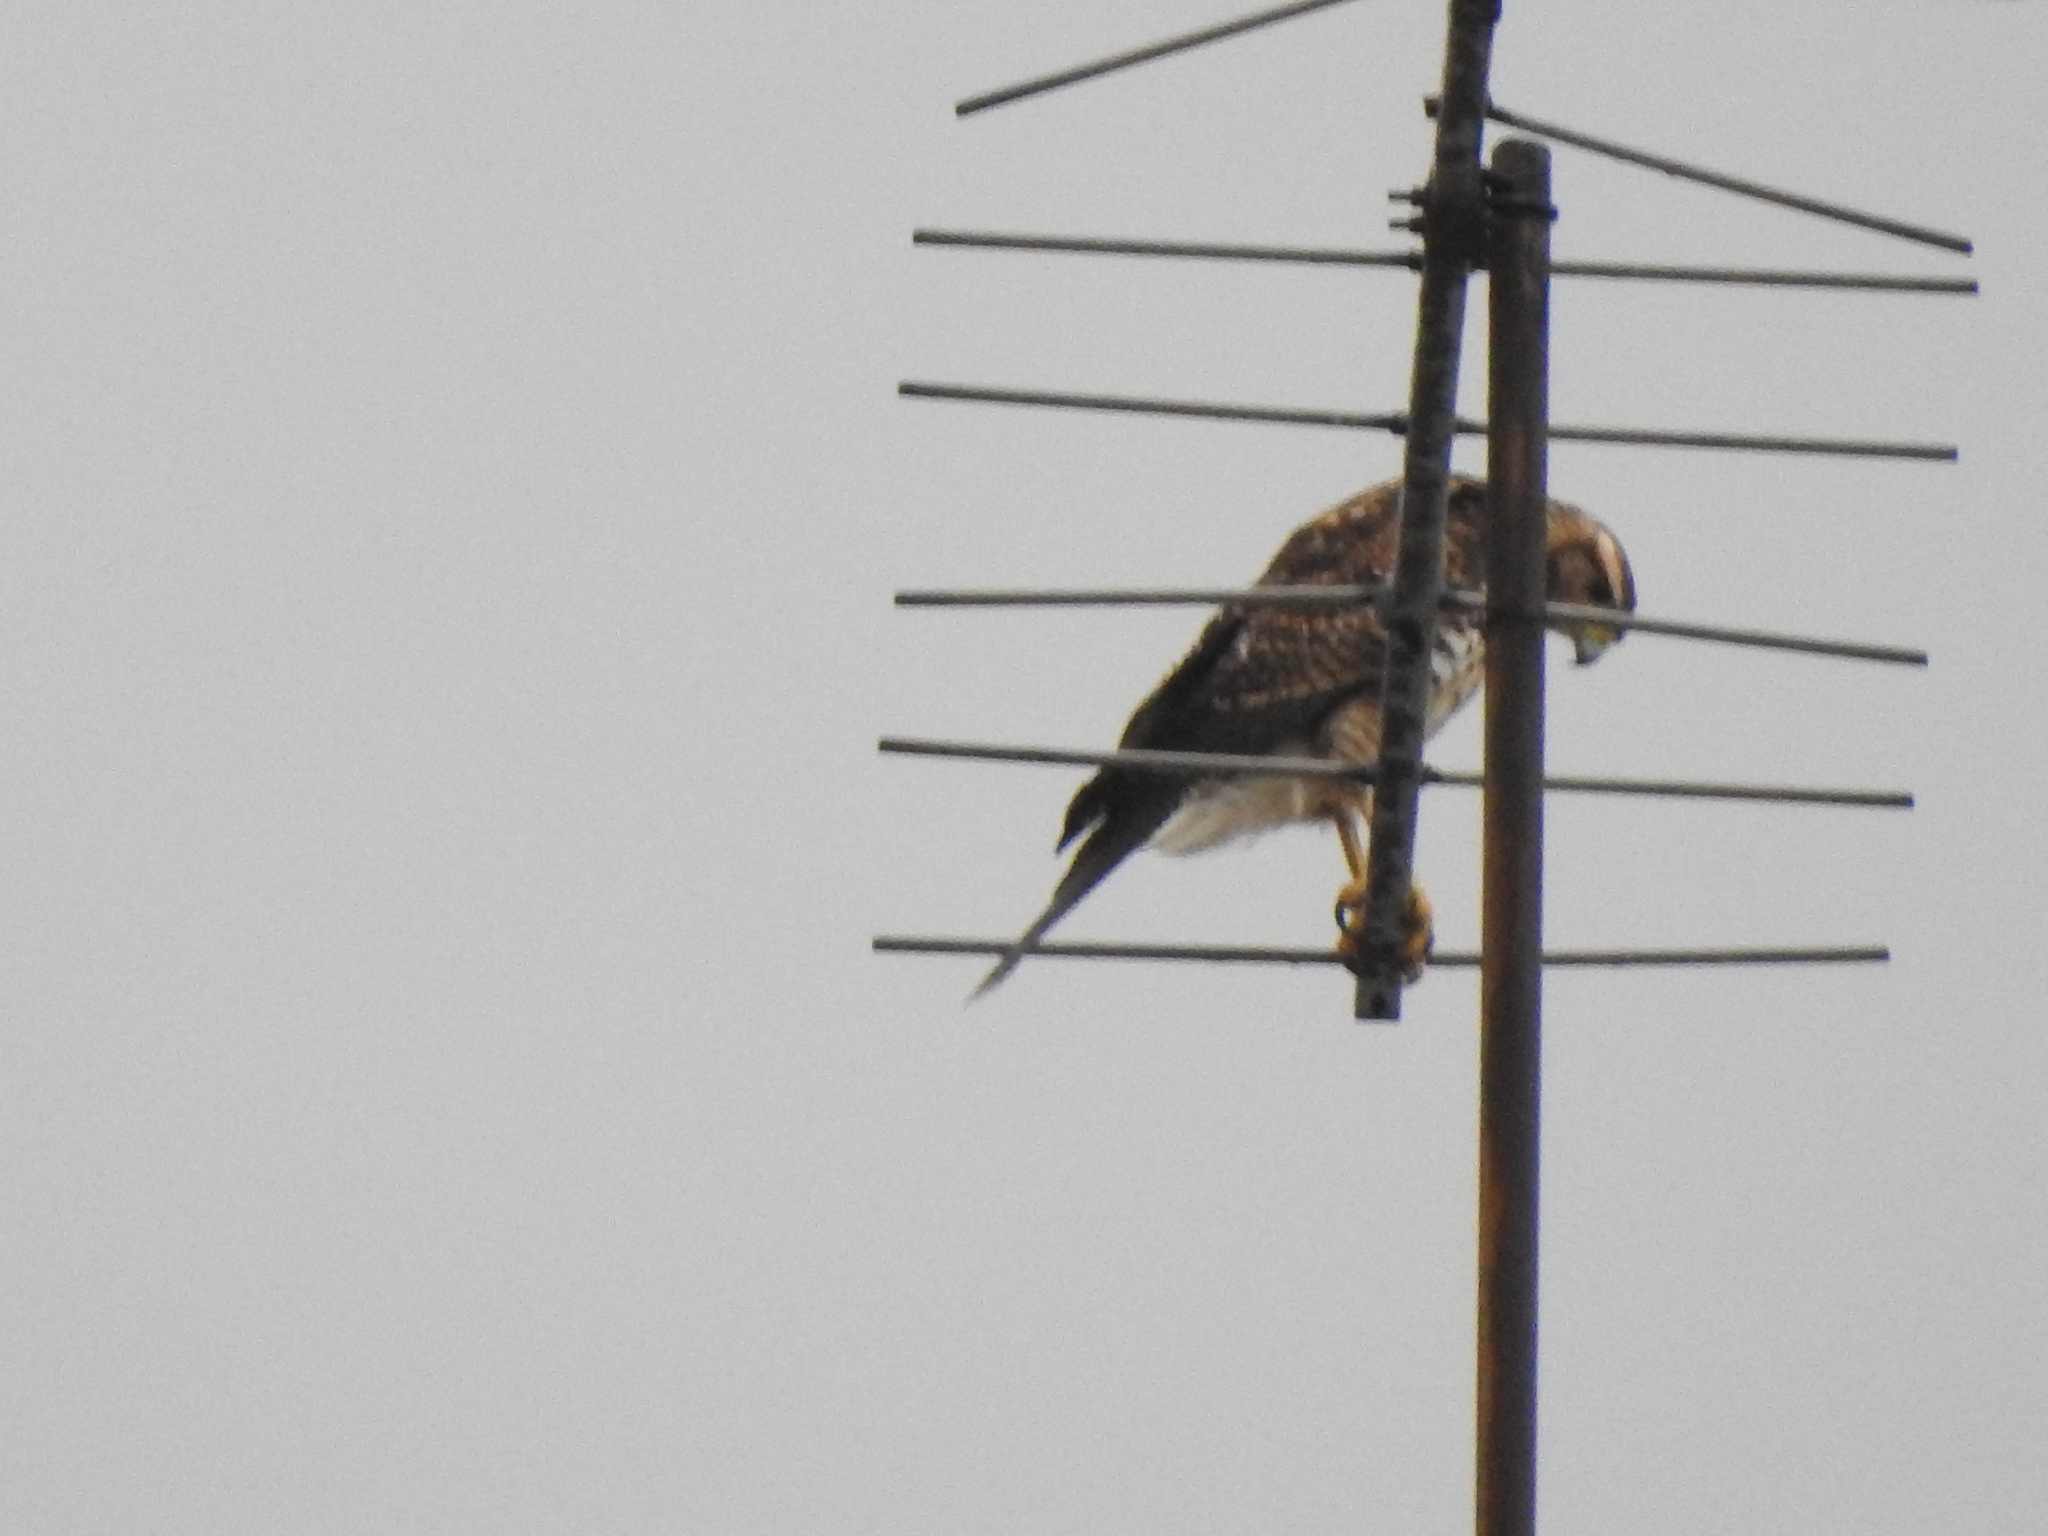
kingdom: Animalia
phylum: Chordata
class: Aves
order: Accipitriformes
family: Accipitridae
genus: Parabuteo
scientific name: Parabuteo unicinctus
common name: Harris's hawk
